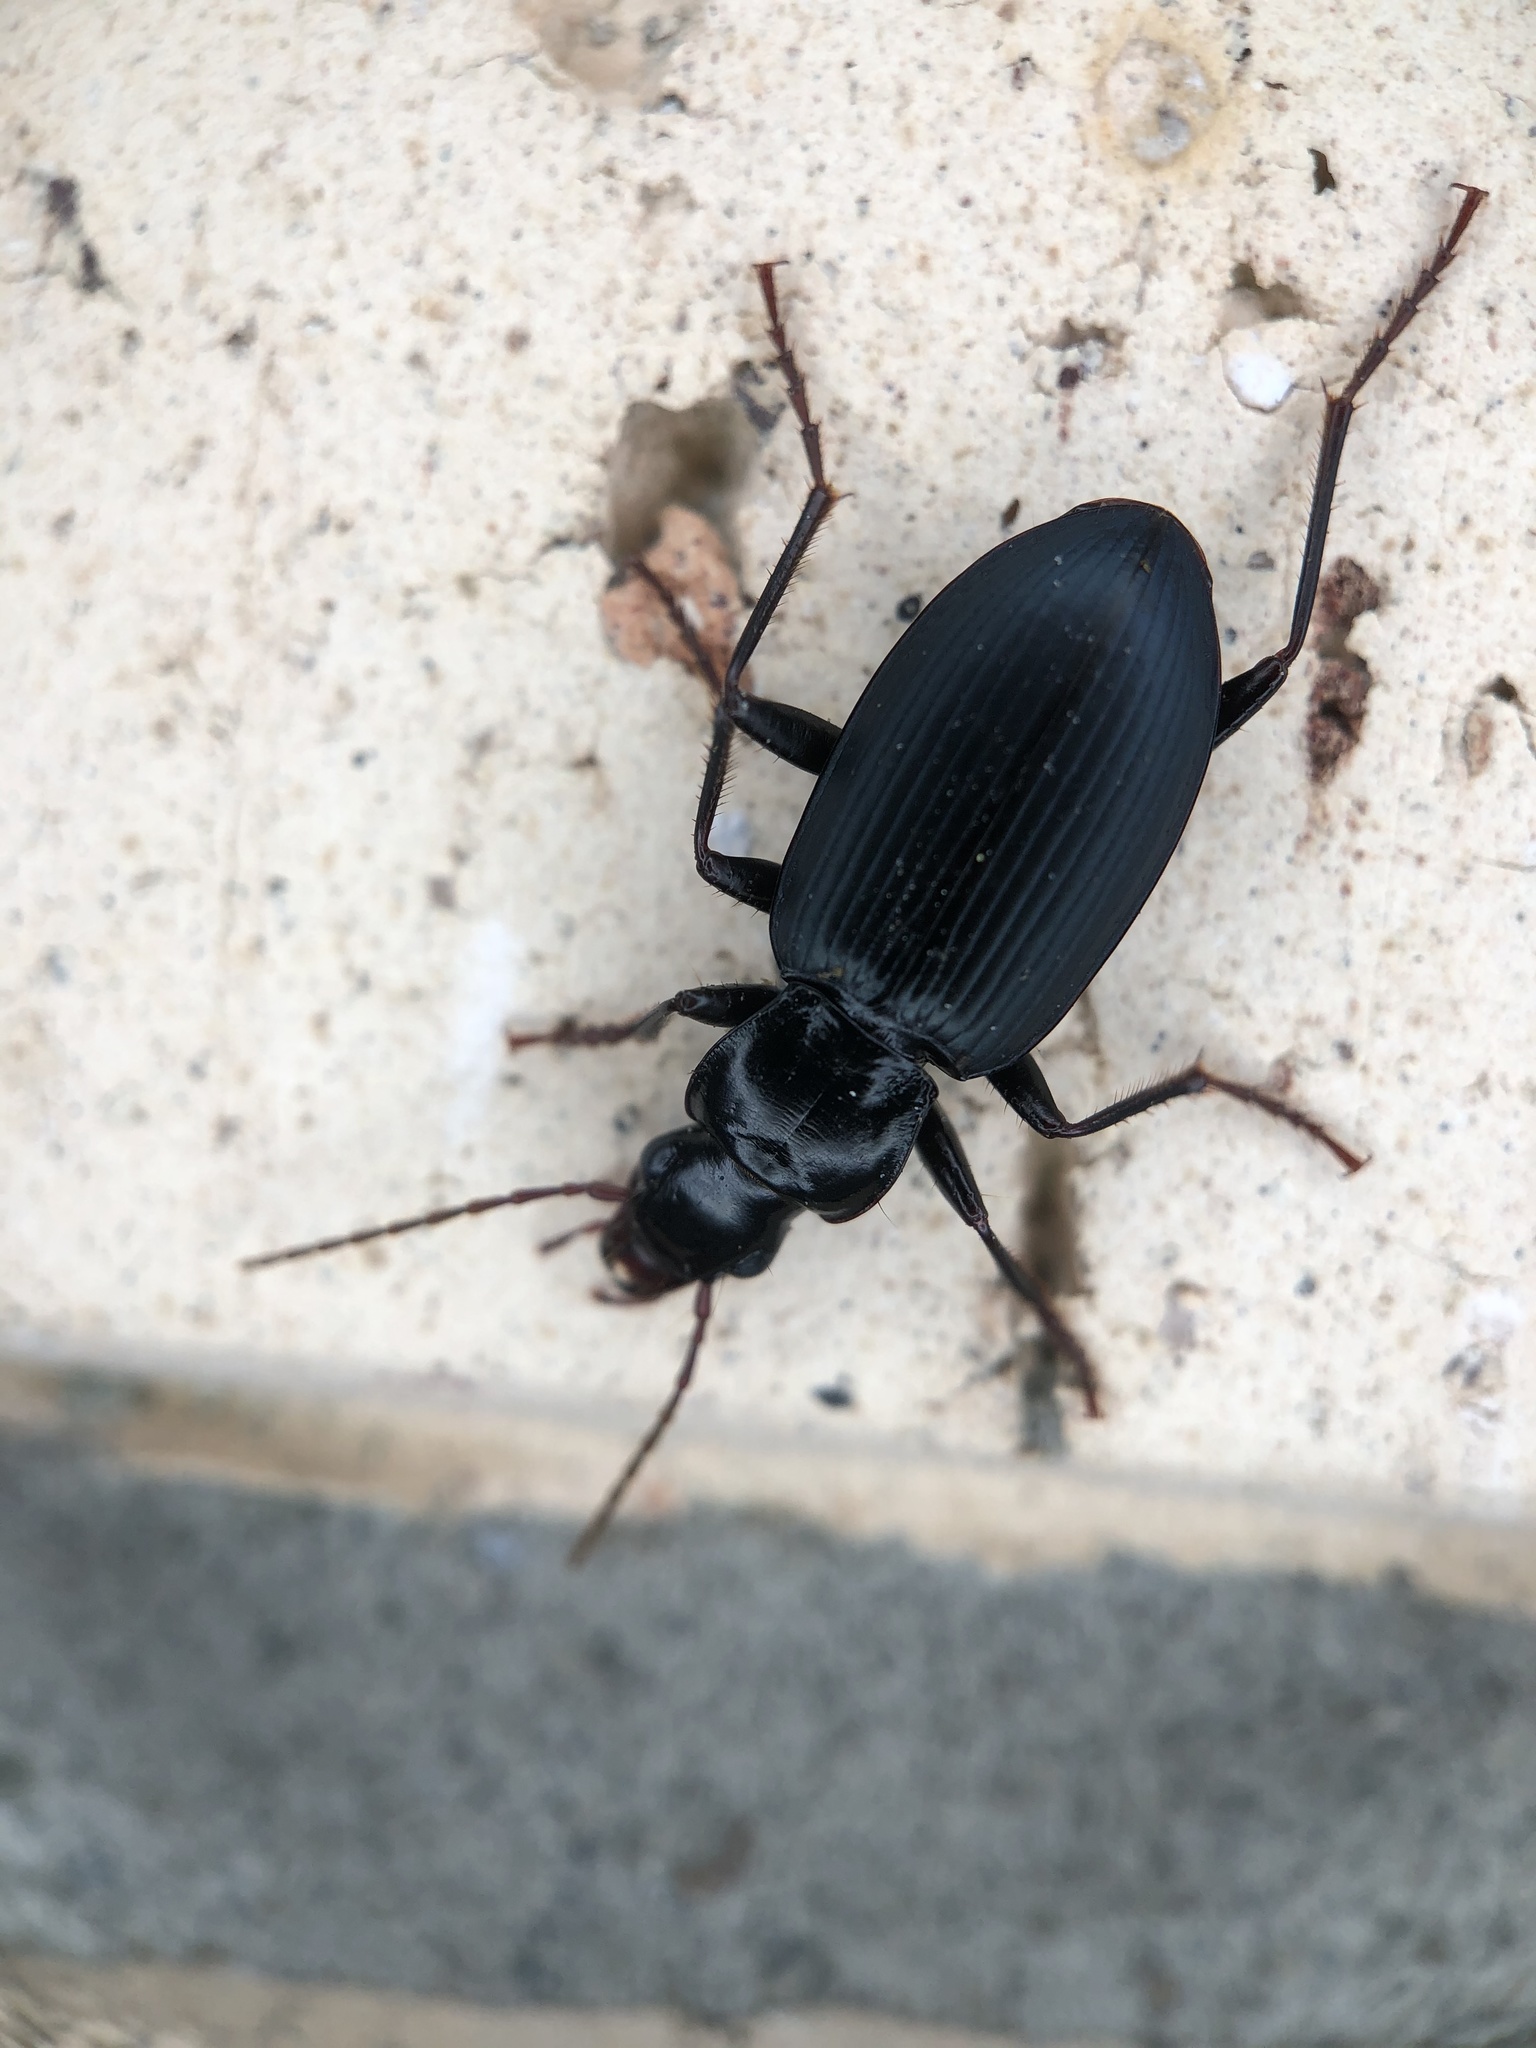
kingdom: Animalia
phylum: Arthropoda
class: Insecta
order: Coleoptera
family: Carabidae
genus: Laemostenus
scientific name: Laemostenus complanatus
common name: Cosmopolitan ground beetle
